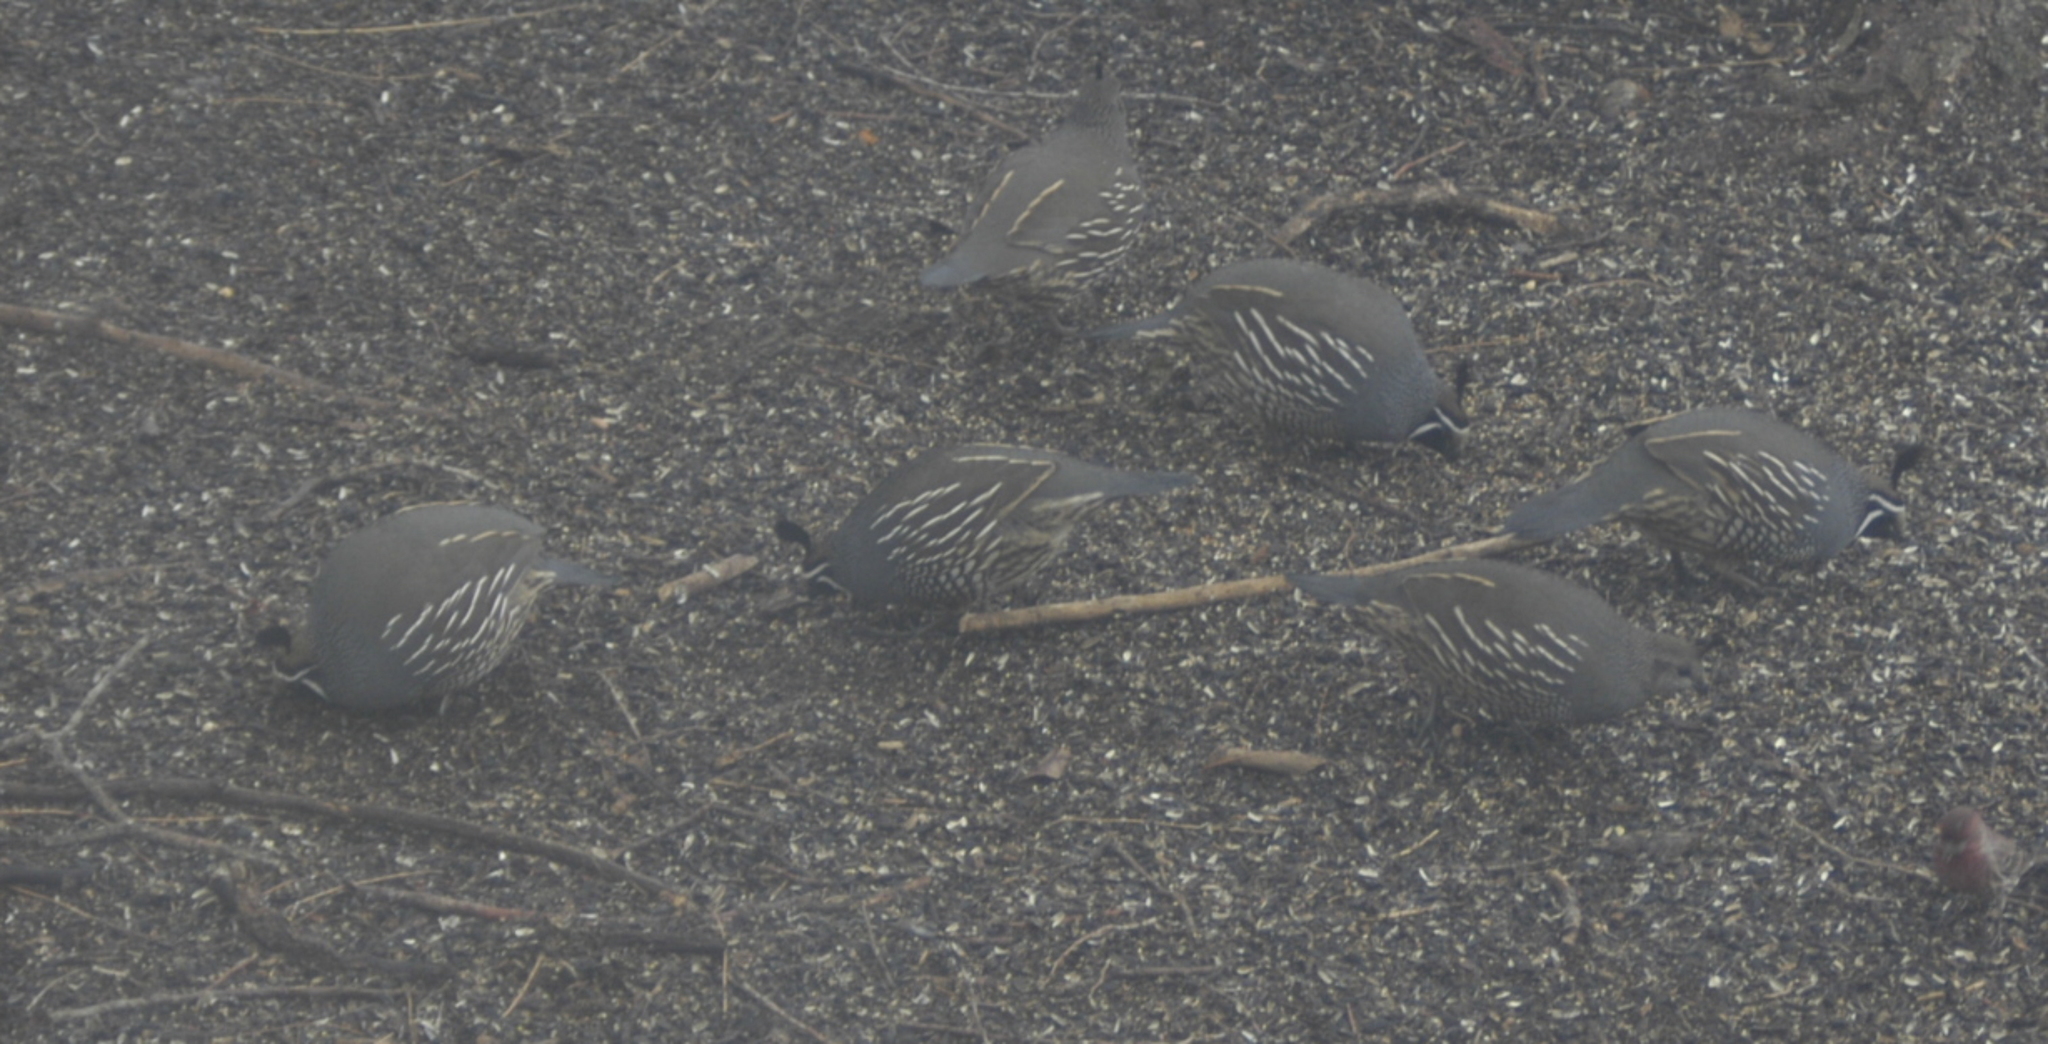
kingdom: Animalia
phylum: Chordata
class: Aves
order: Galliformes
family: Odontophoridae
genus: Callipepla
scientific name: Callipepla californica
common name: California quail
